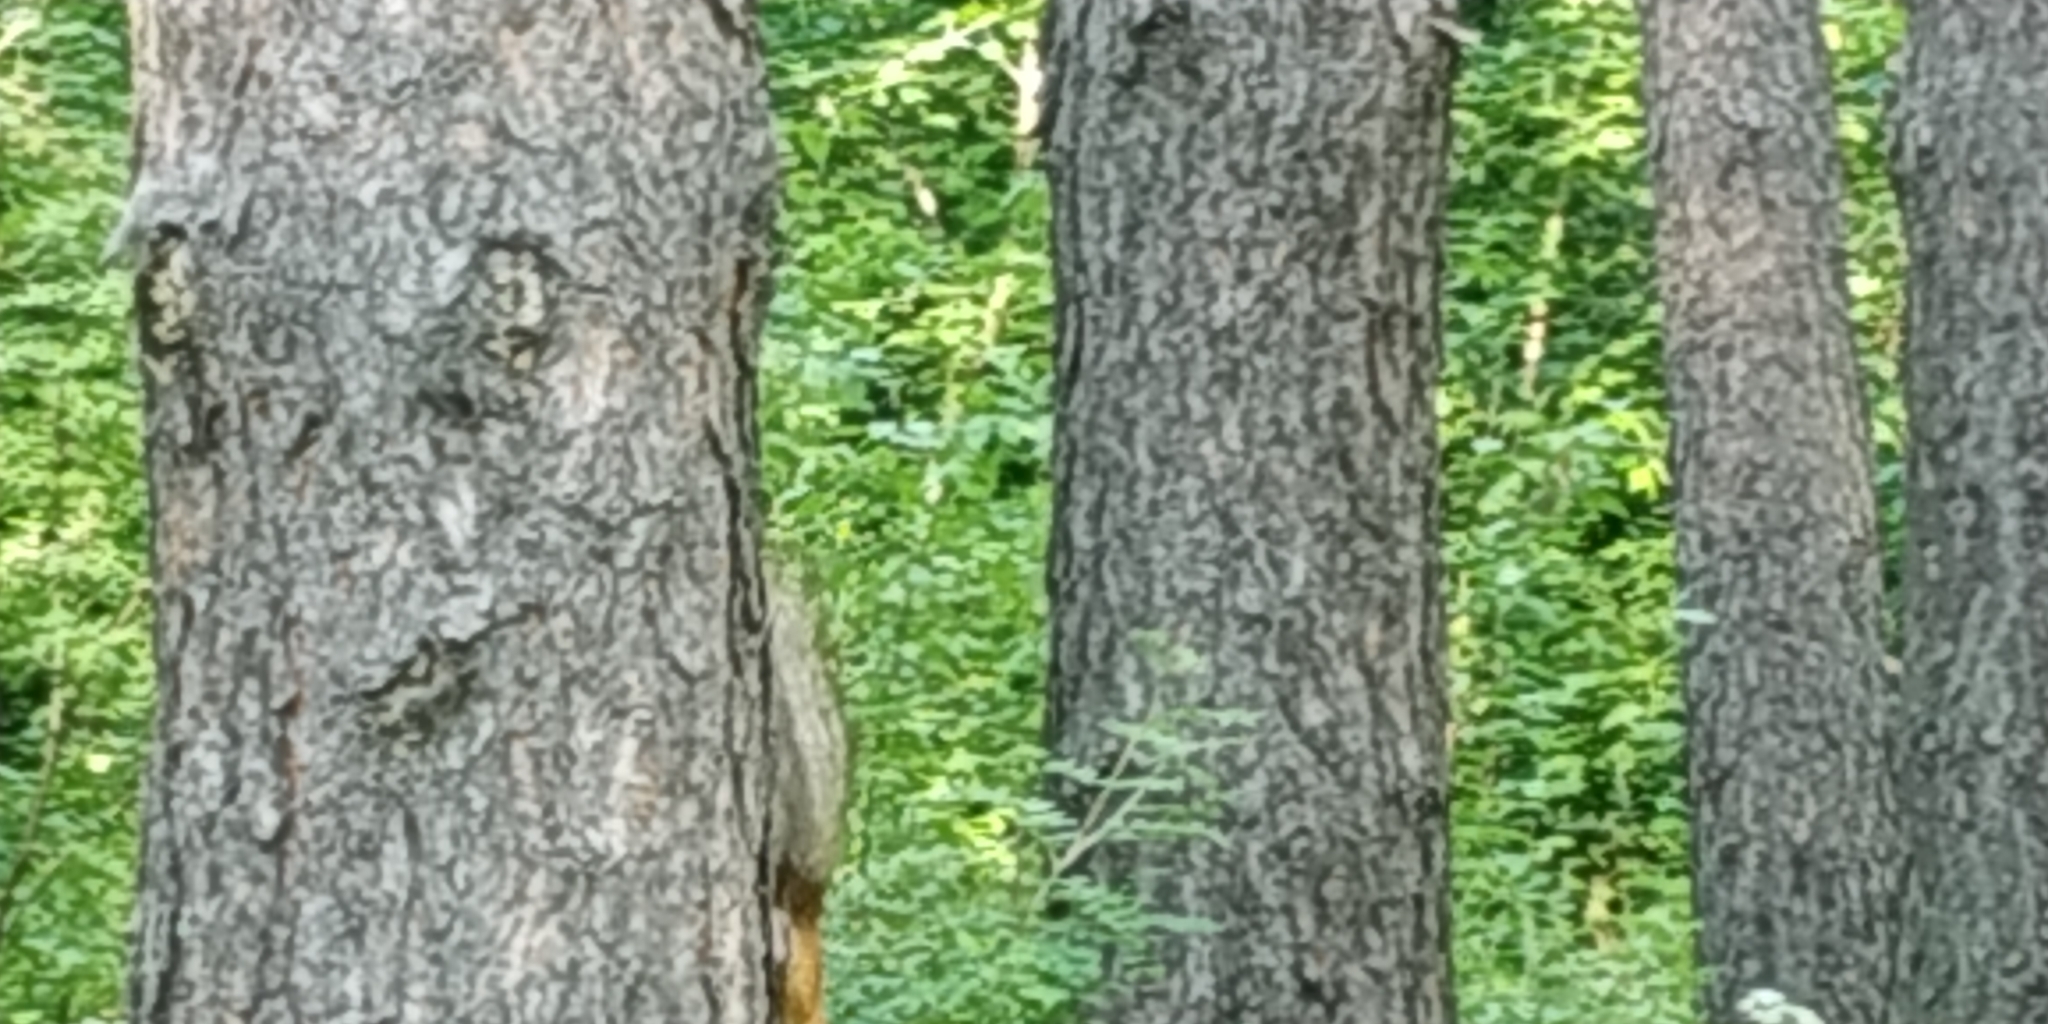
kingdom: Animalia
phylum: Chordata
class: Mammalia
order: Rodentia
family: Sciuridae
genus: Sciurus
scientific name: Sciurus vulgaris
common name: Eurasian red squirrel
